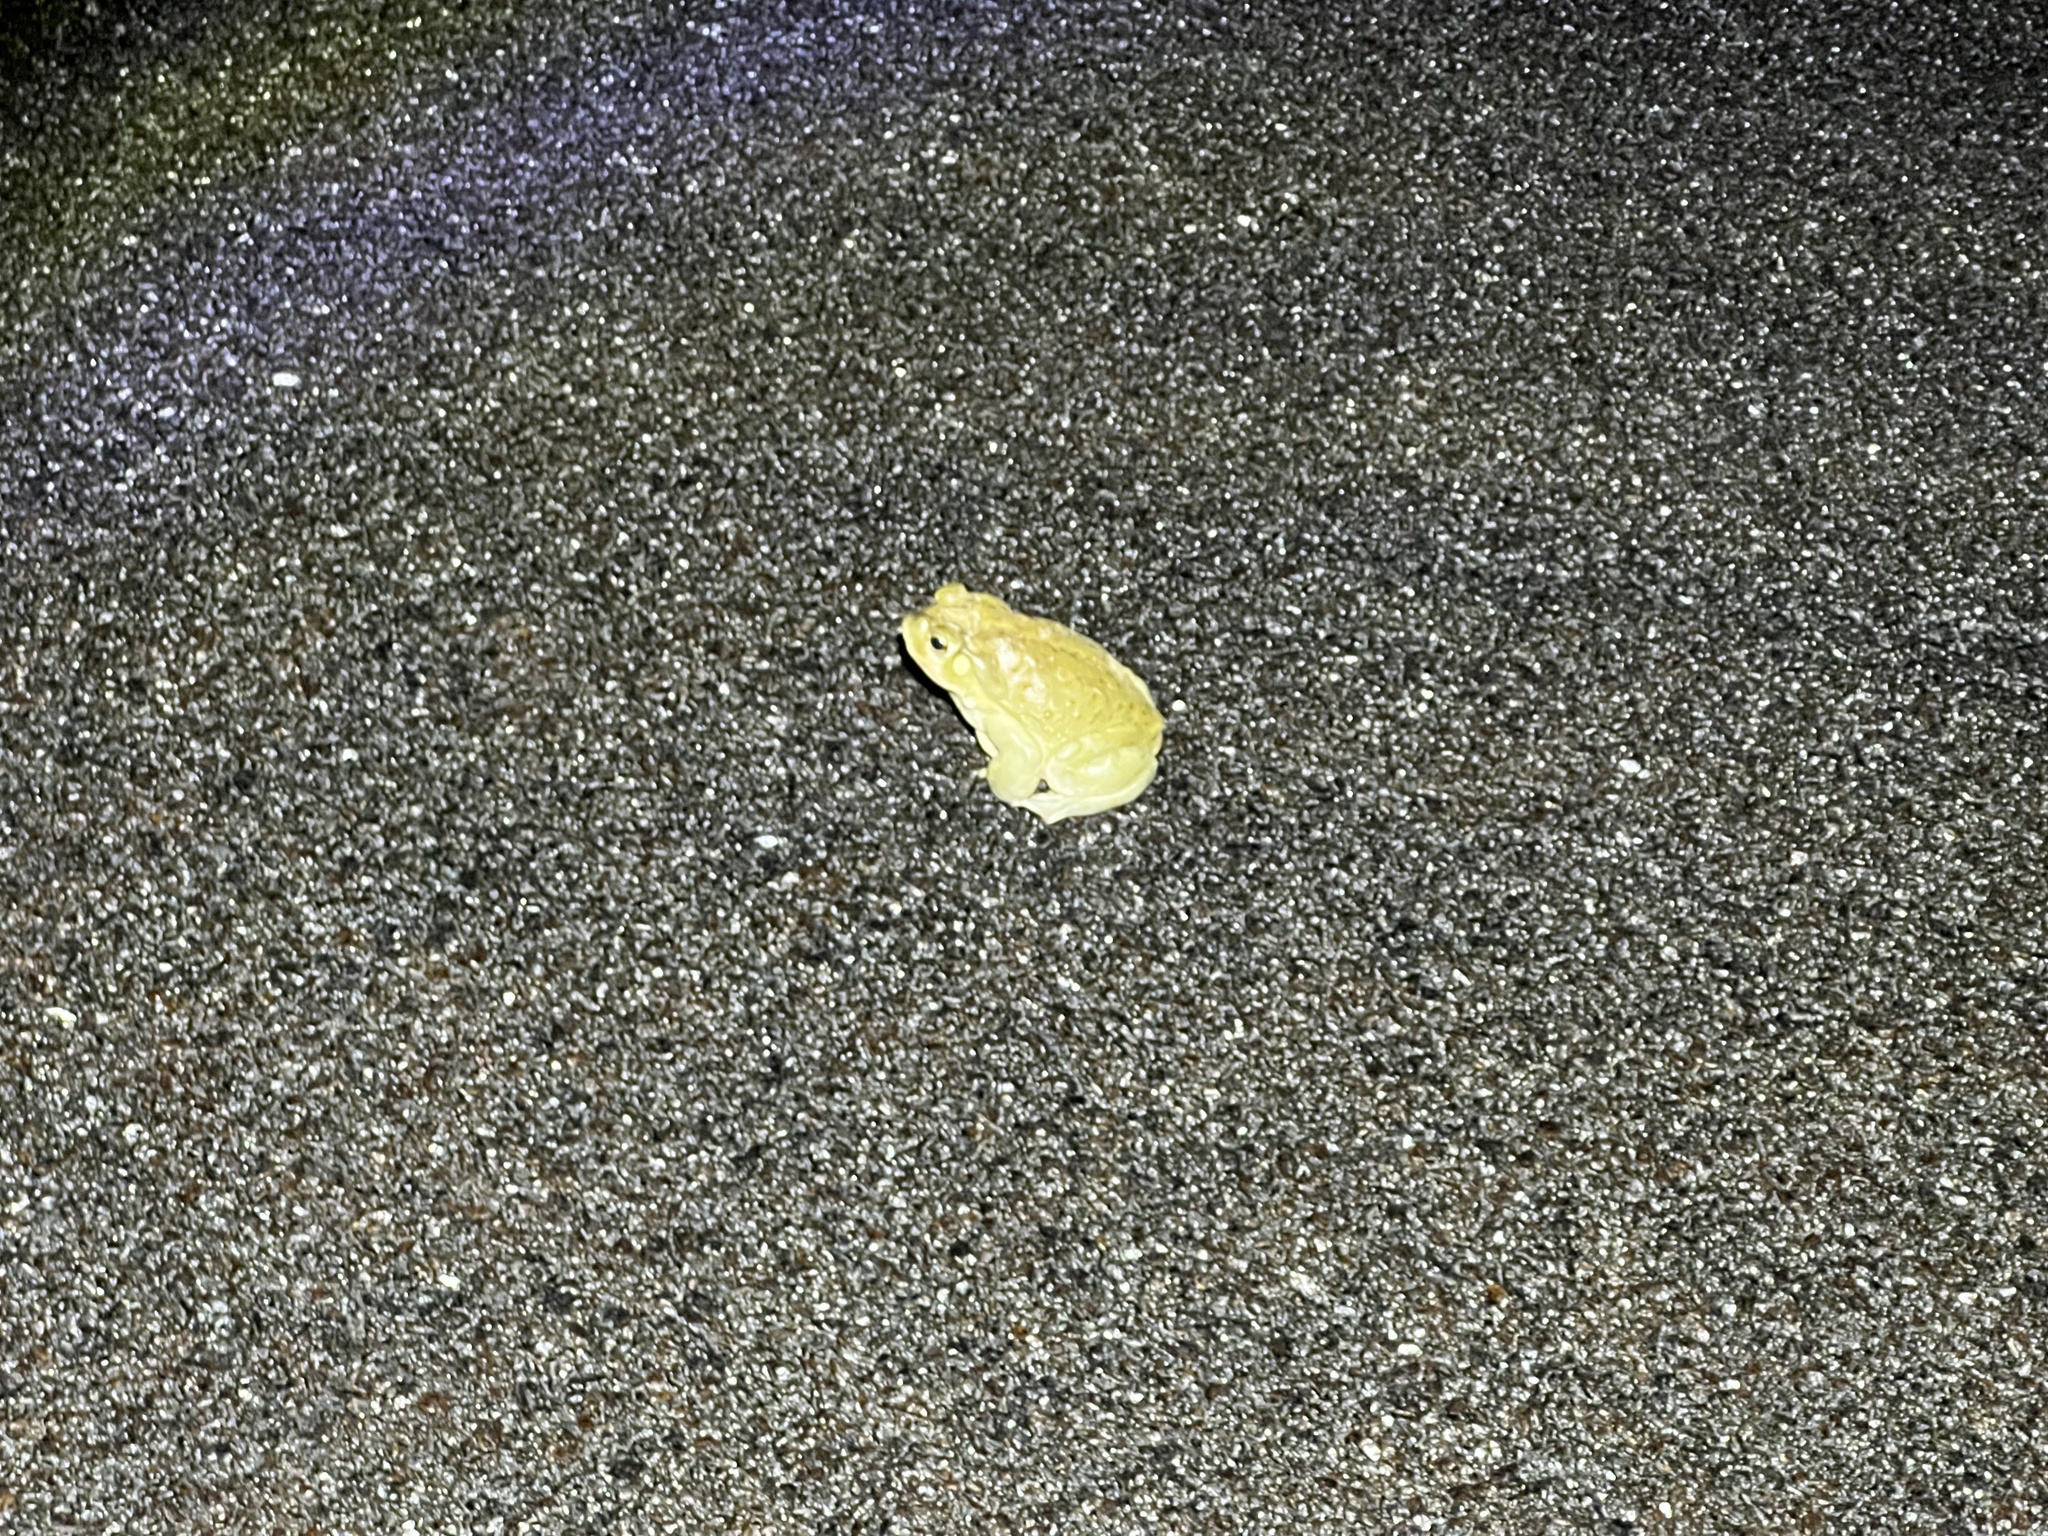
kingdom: Animalia
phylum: Chordata
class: Amphibia
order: Anura
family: Bufonidae
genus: Incilius
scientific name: Incilius alvarius
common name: Sonoran desert toad
